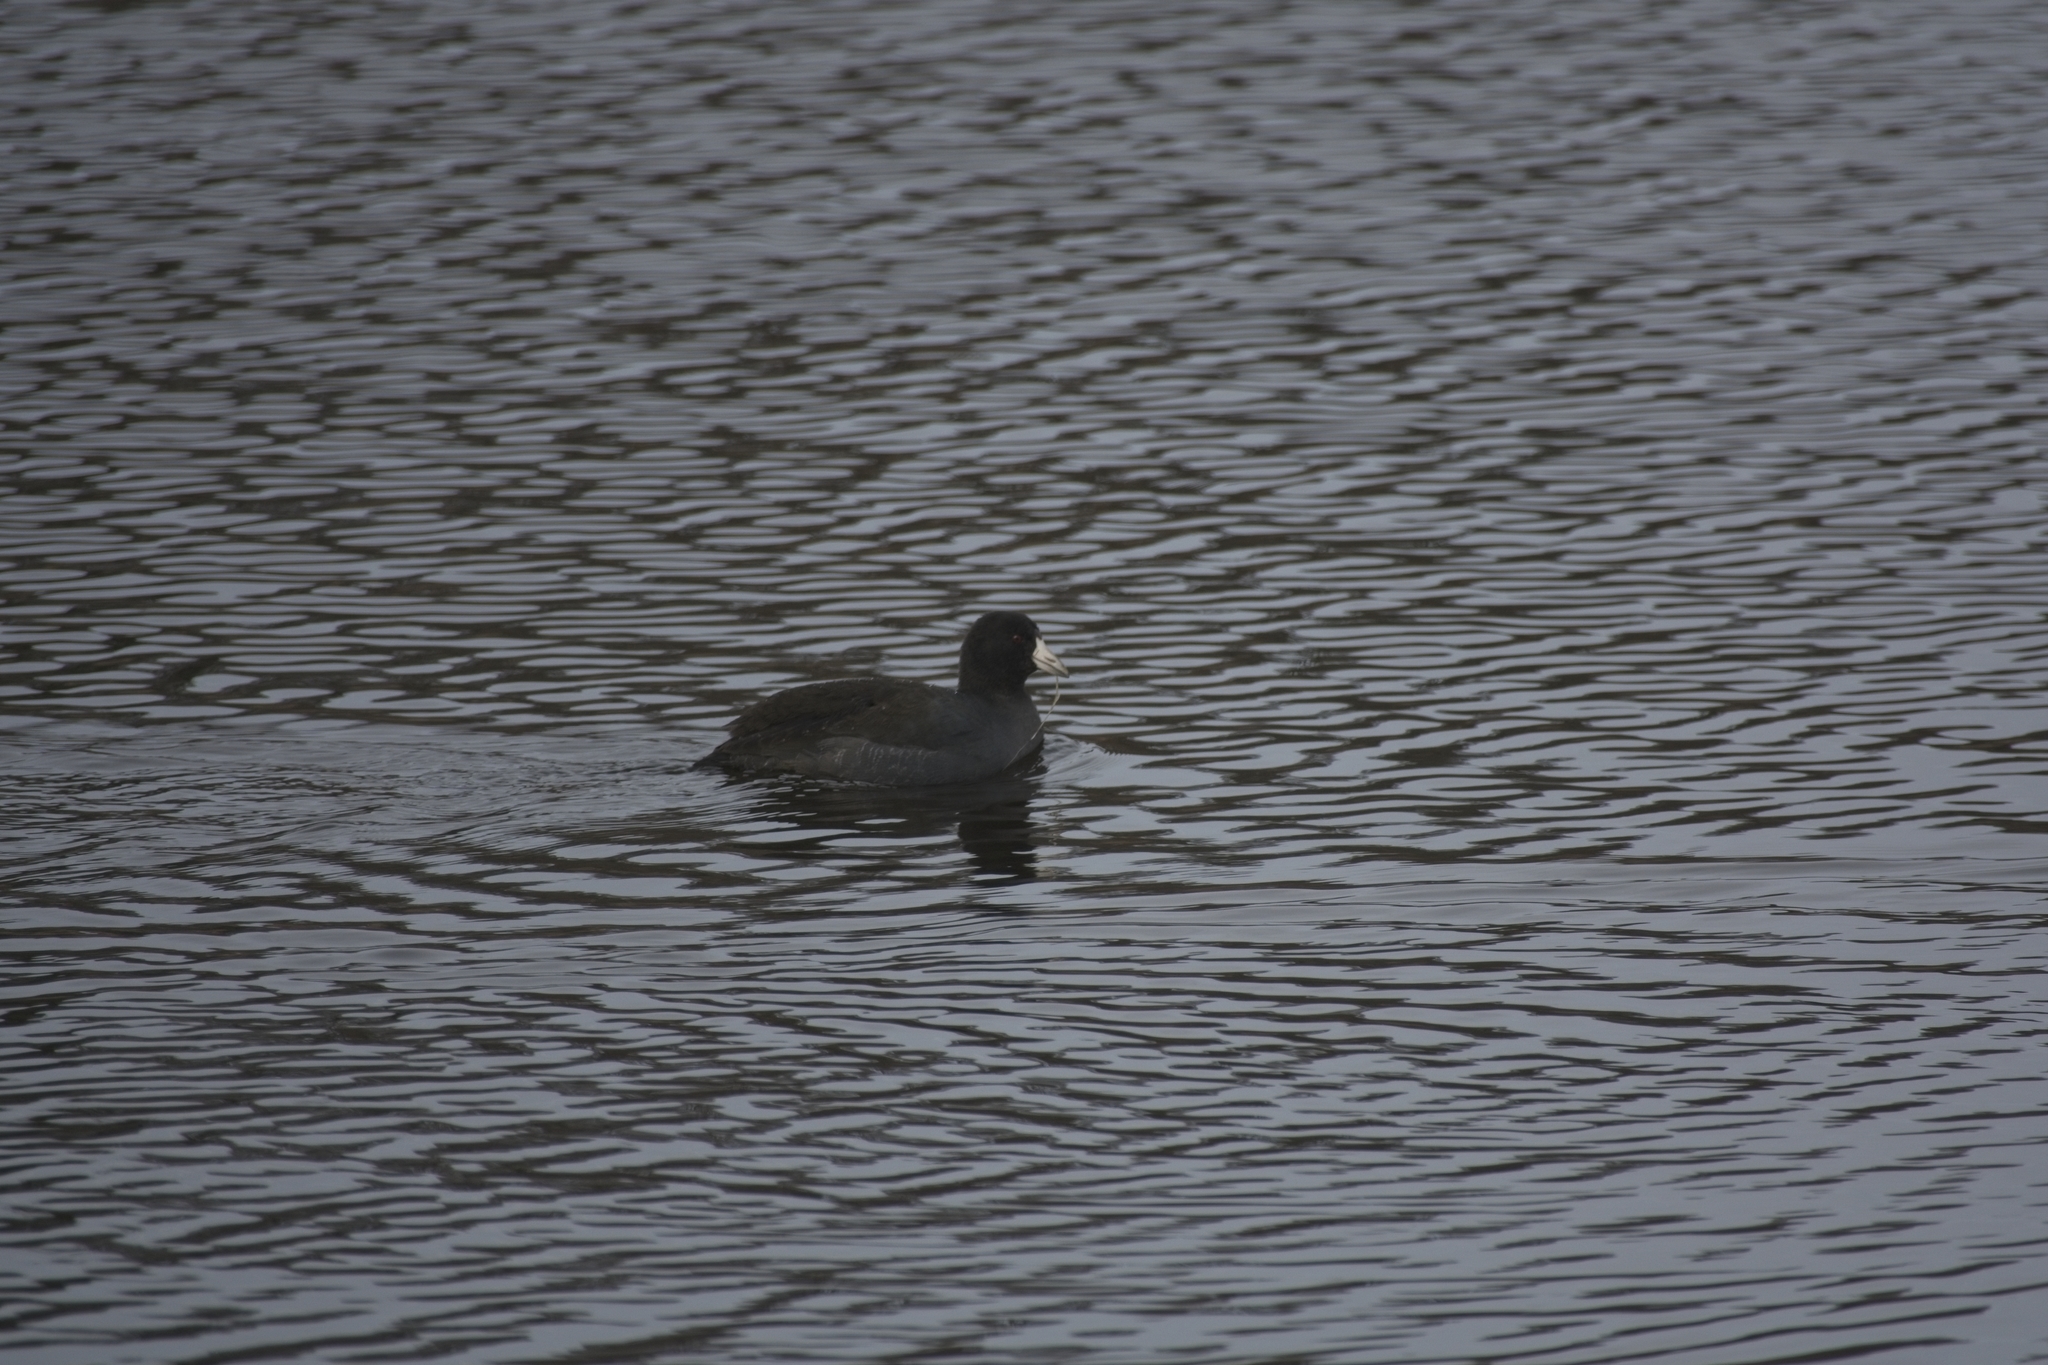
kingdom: Animalia
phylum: Chordata
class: Aves
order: Gruiformes
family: Rallidae
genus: Fulica
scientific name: Fulica americana
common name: American coot
